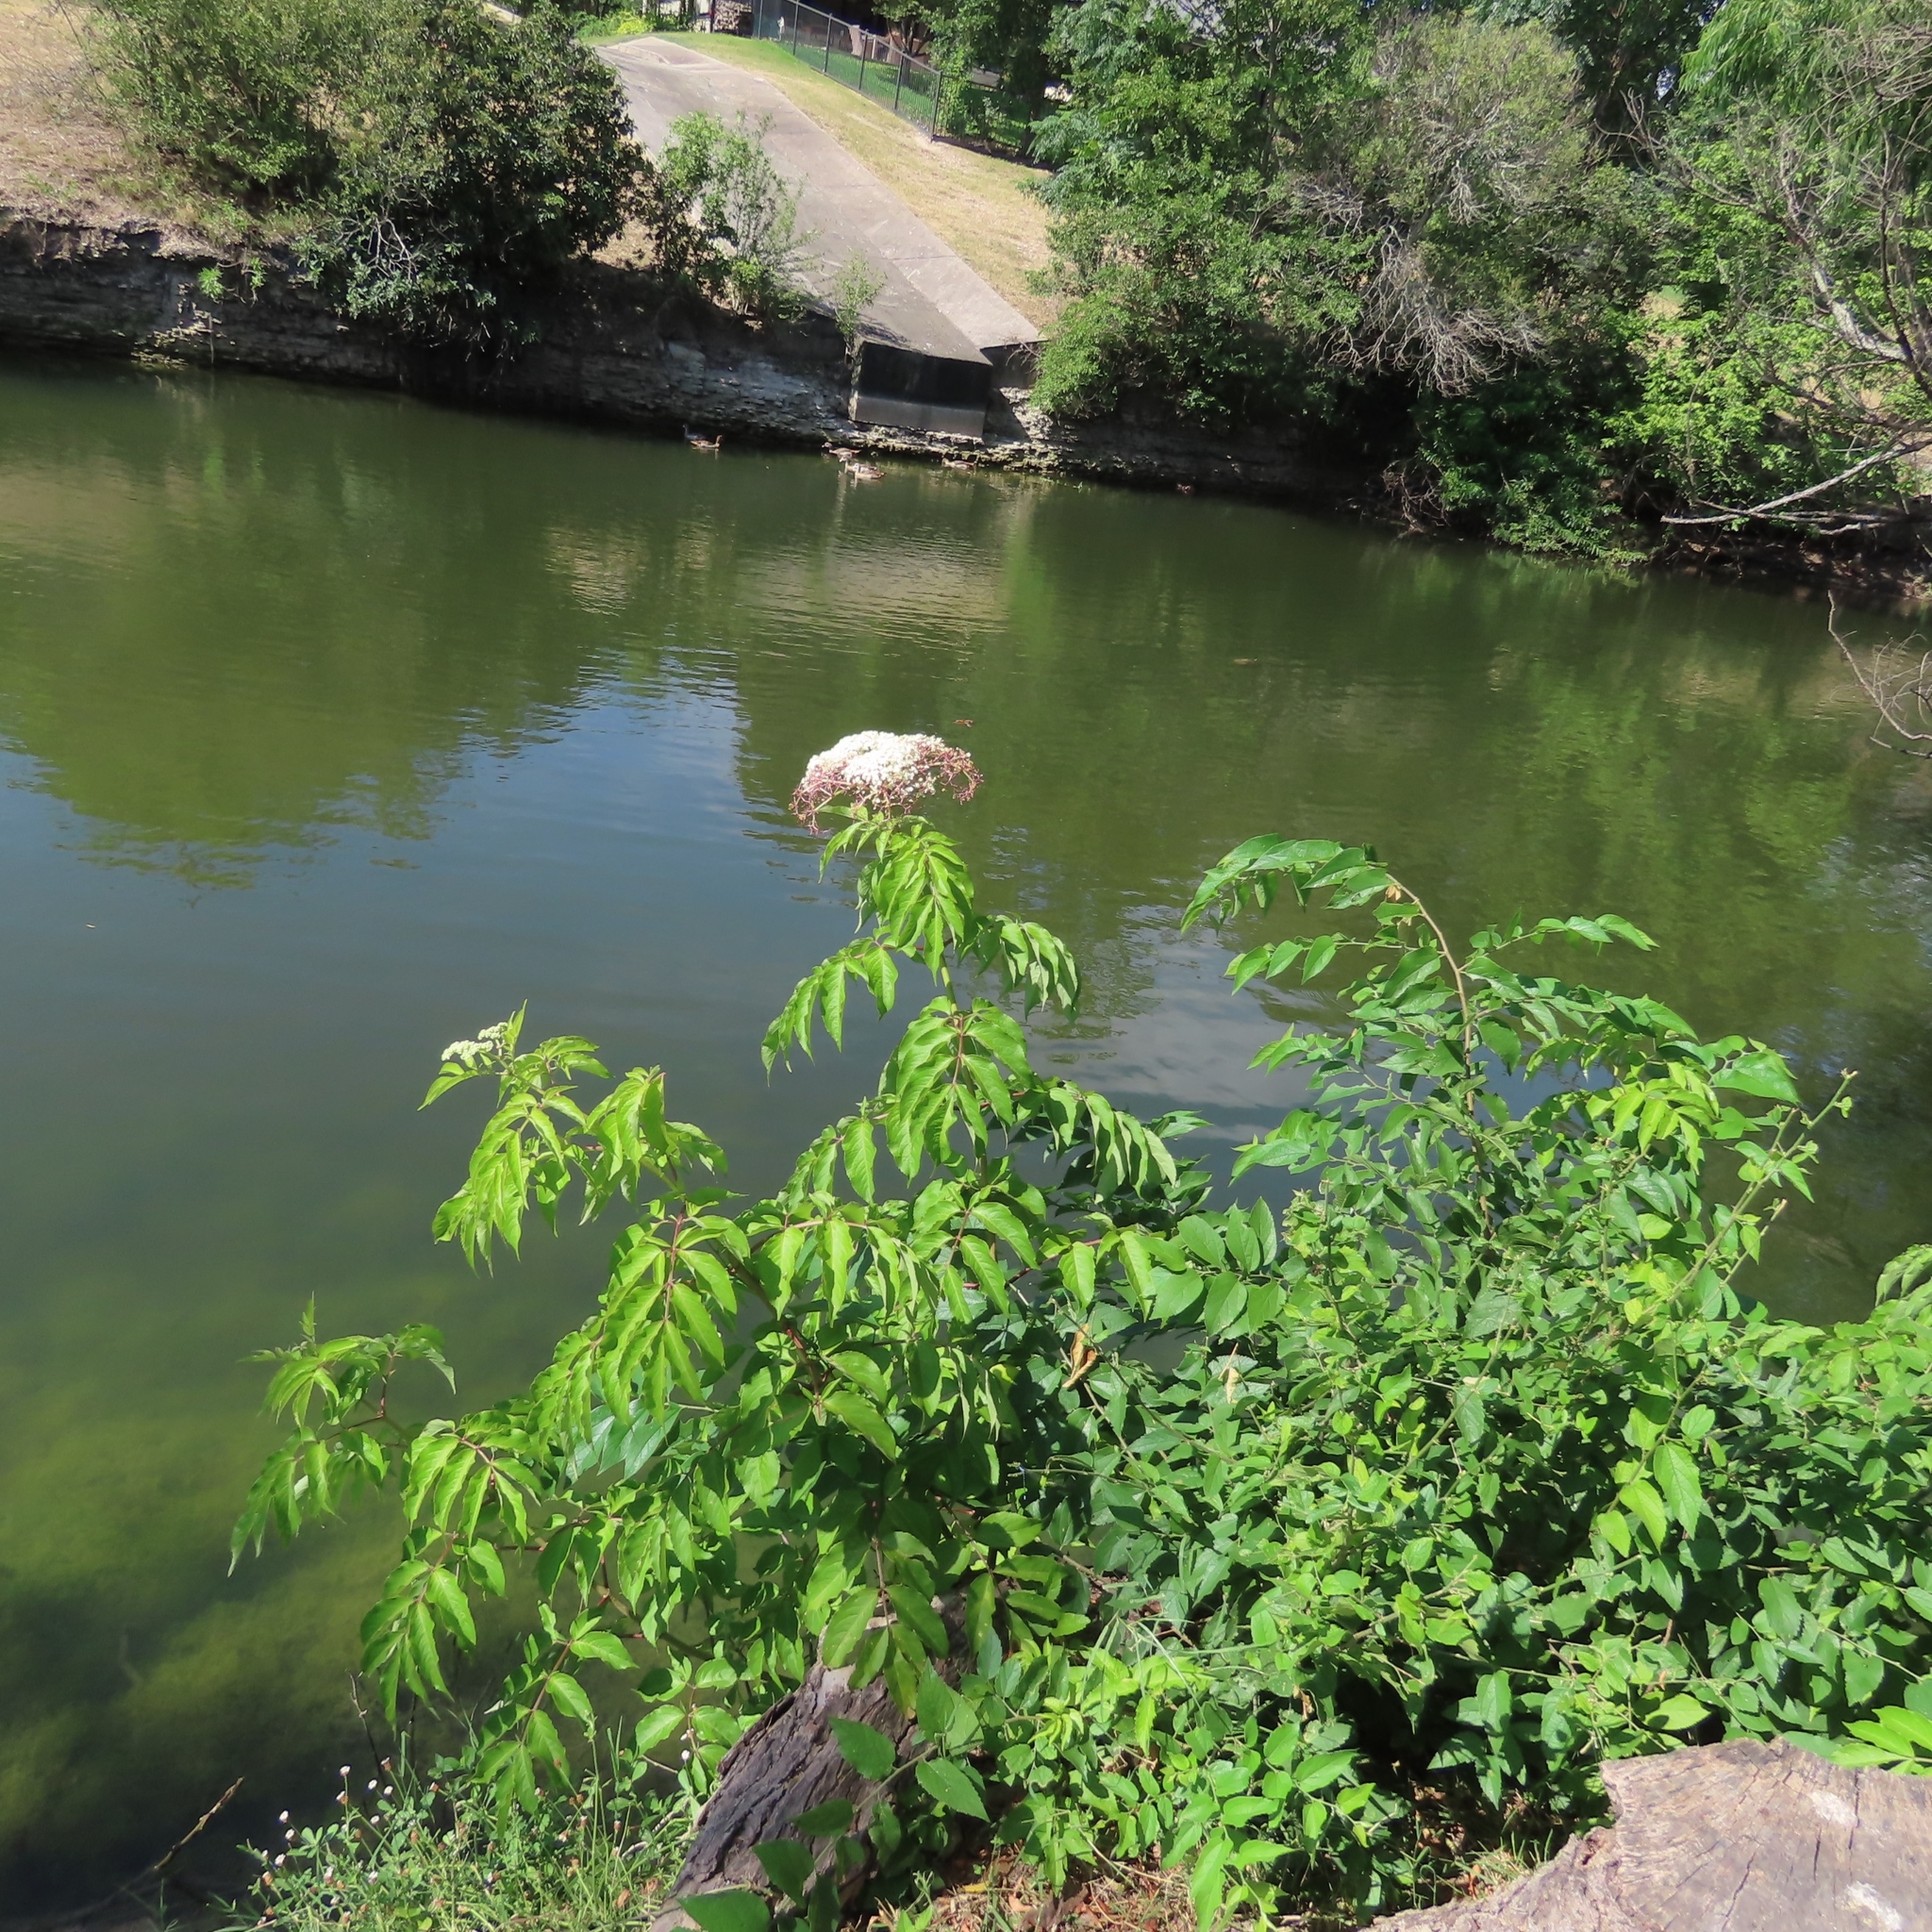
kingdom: Plantae
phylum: Tracheophyta
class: Magnoliopsida
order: Dipsacales
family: Viburnaceae
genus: Sambucus
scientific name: Sambucus canadensis
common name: American elder
